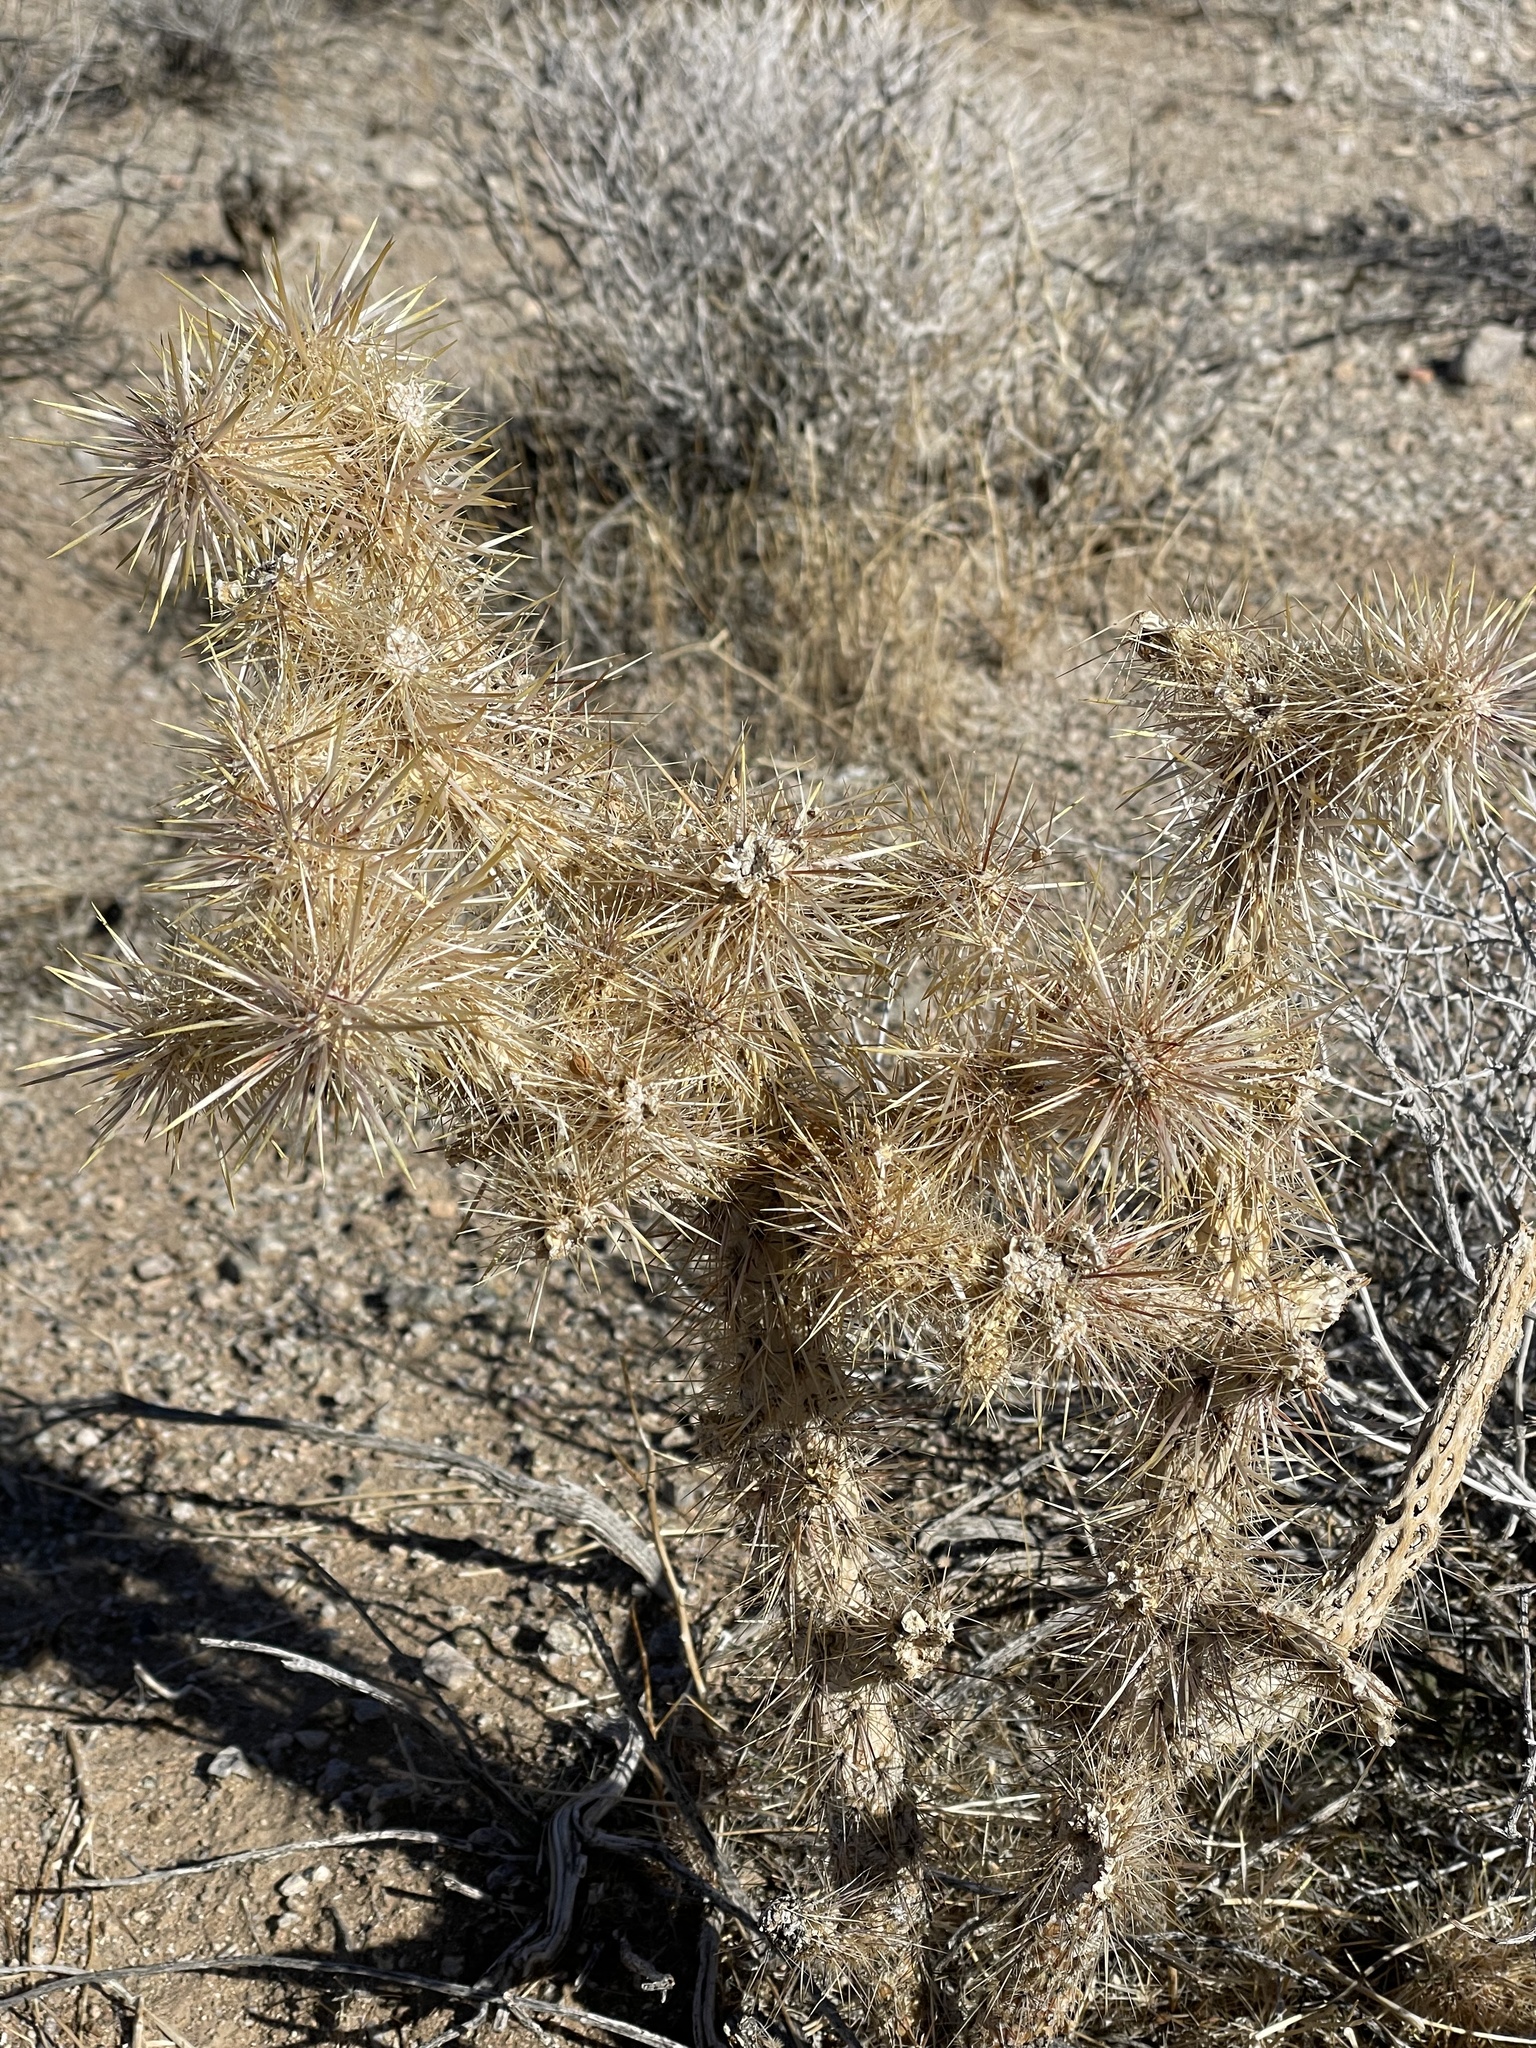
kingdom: Plantae
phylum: Tracheophyta
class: Magnoliopsida
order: Caryophyllales
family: Cactaceae
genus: Cylindropuntia
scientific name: Cylindropuntia echinocarpa
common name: Ground cholla
